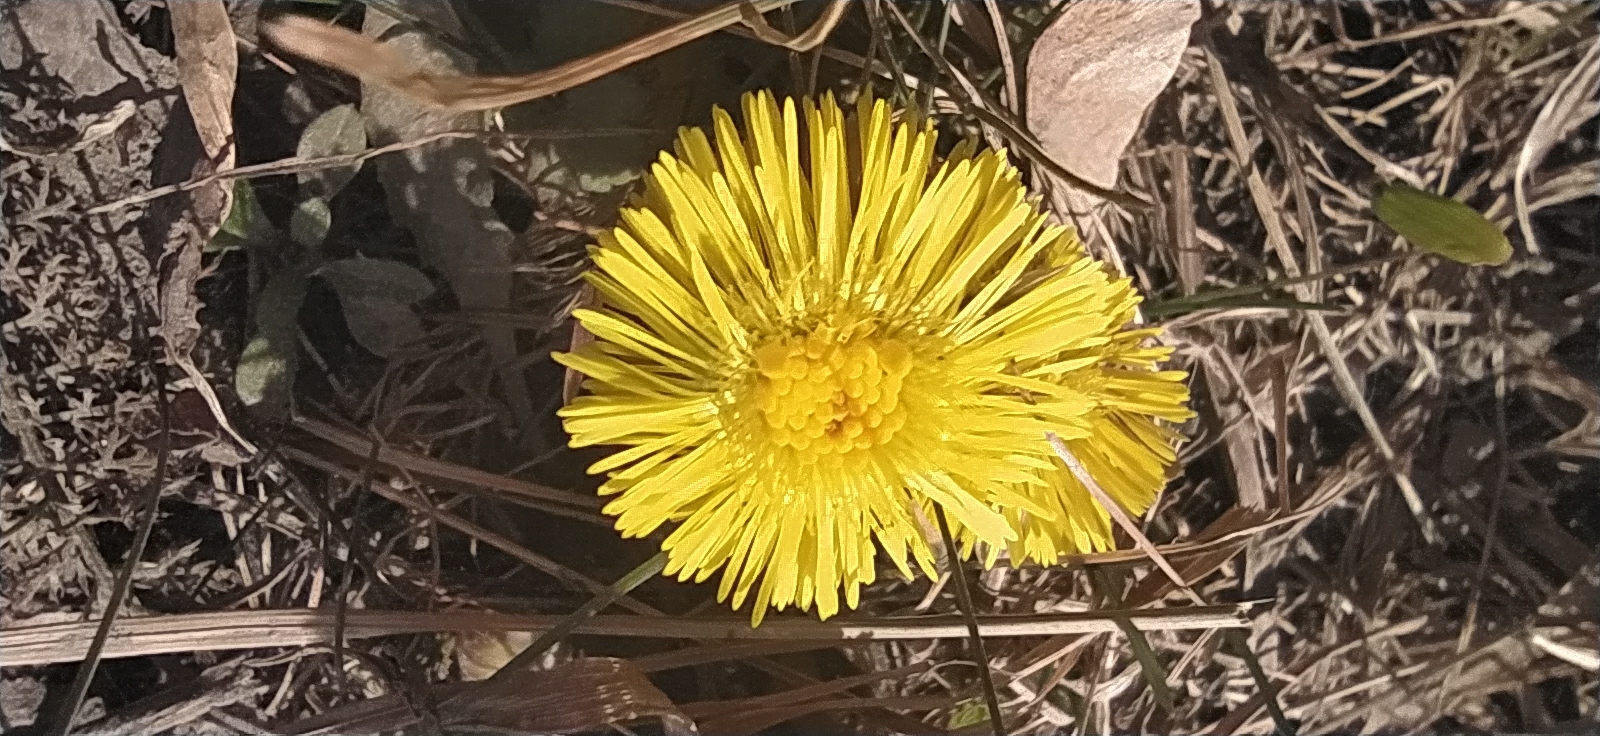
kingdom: Plantae
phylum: Tracheophyta
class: Magnoliopsida
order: Asterales
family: Asteraceae
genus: Tussilago
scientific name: Tussilago farfara
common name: Coltsfoot
